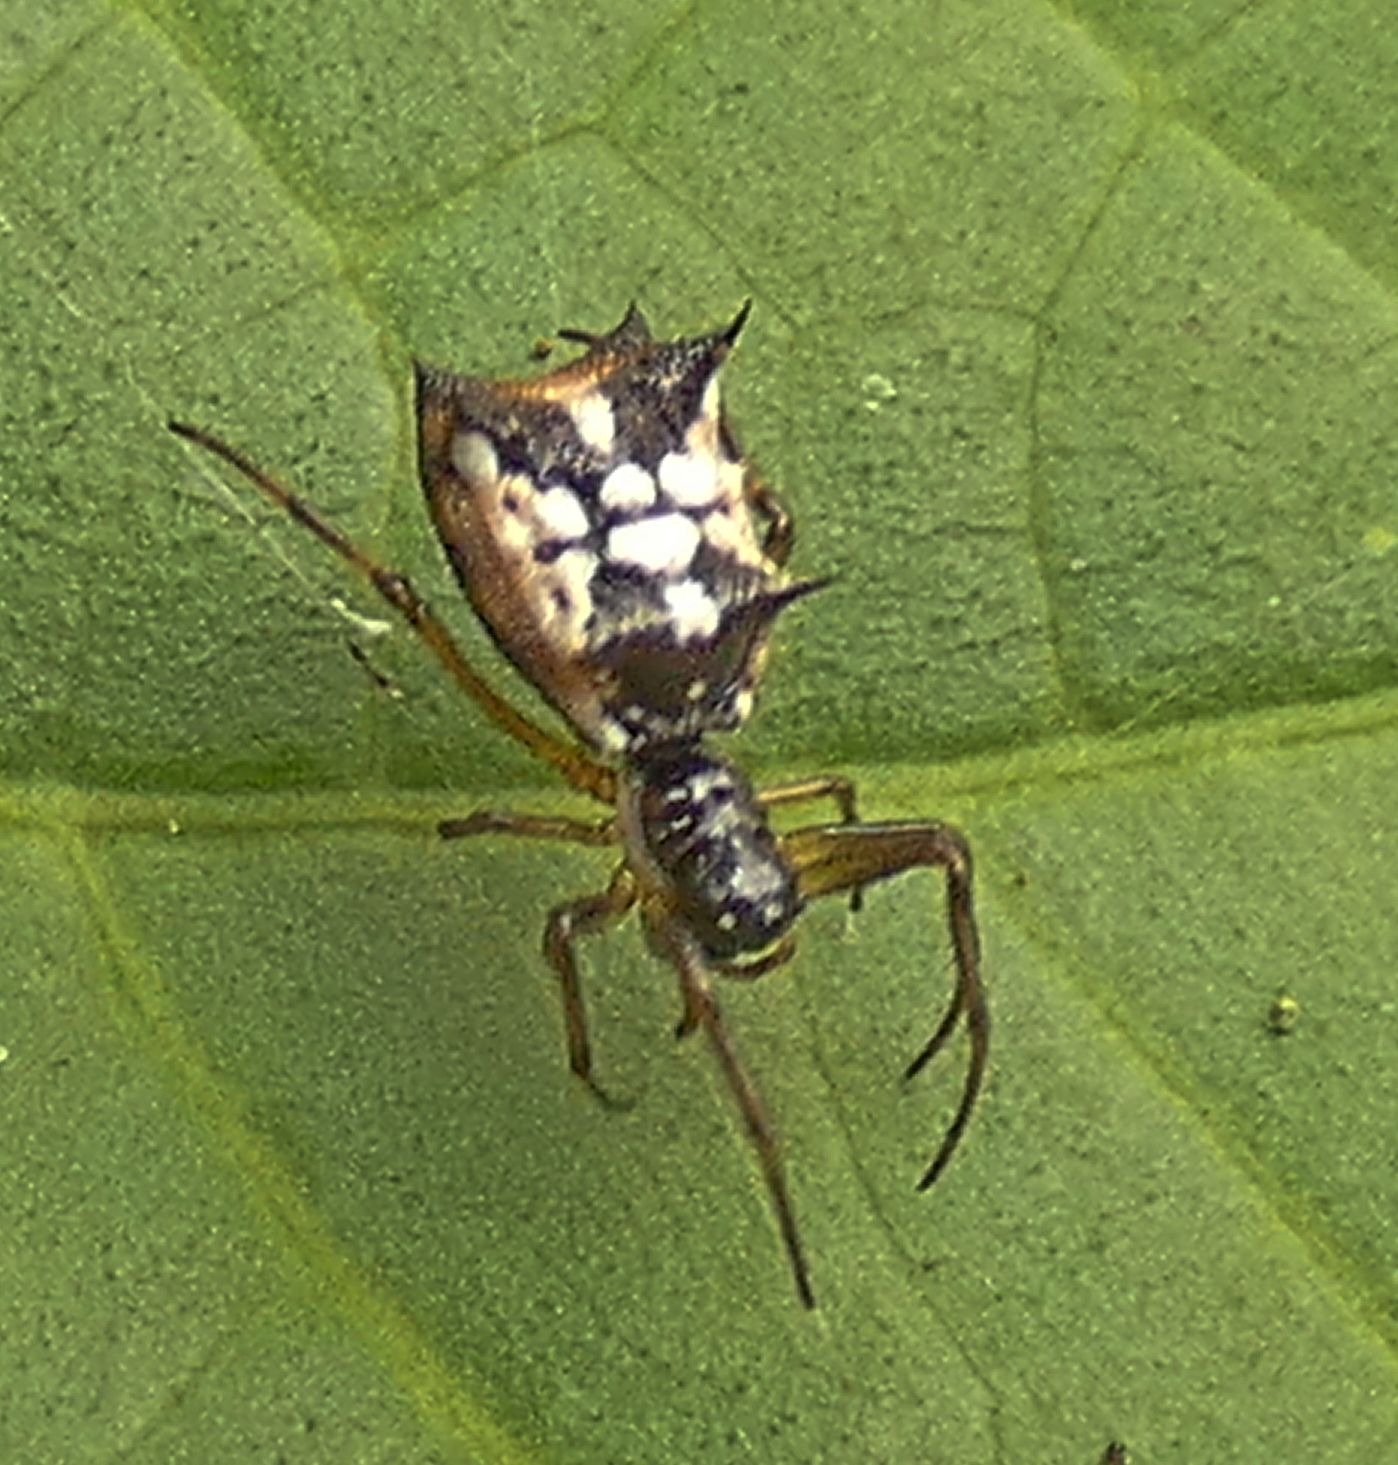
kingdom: Animalia
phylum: Arthropoda
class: Arachnida
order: Araneae
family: Araneidae
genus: Micrathena
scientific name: Micrathena picta
